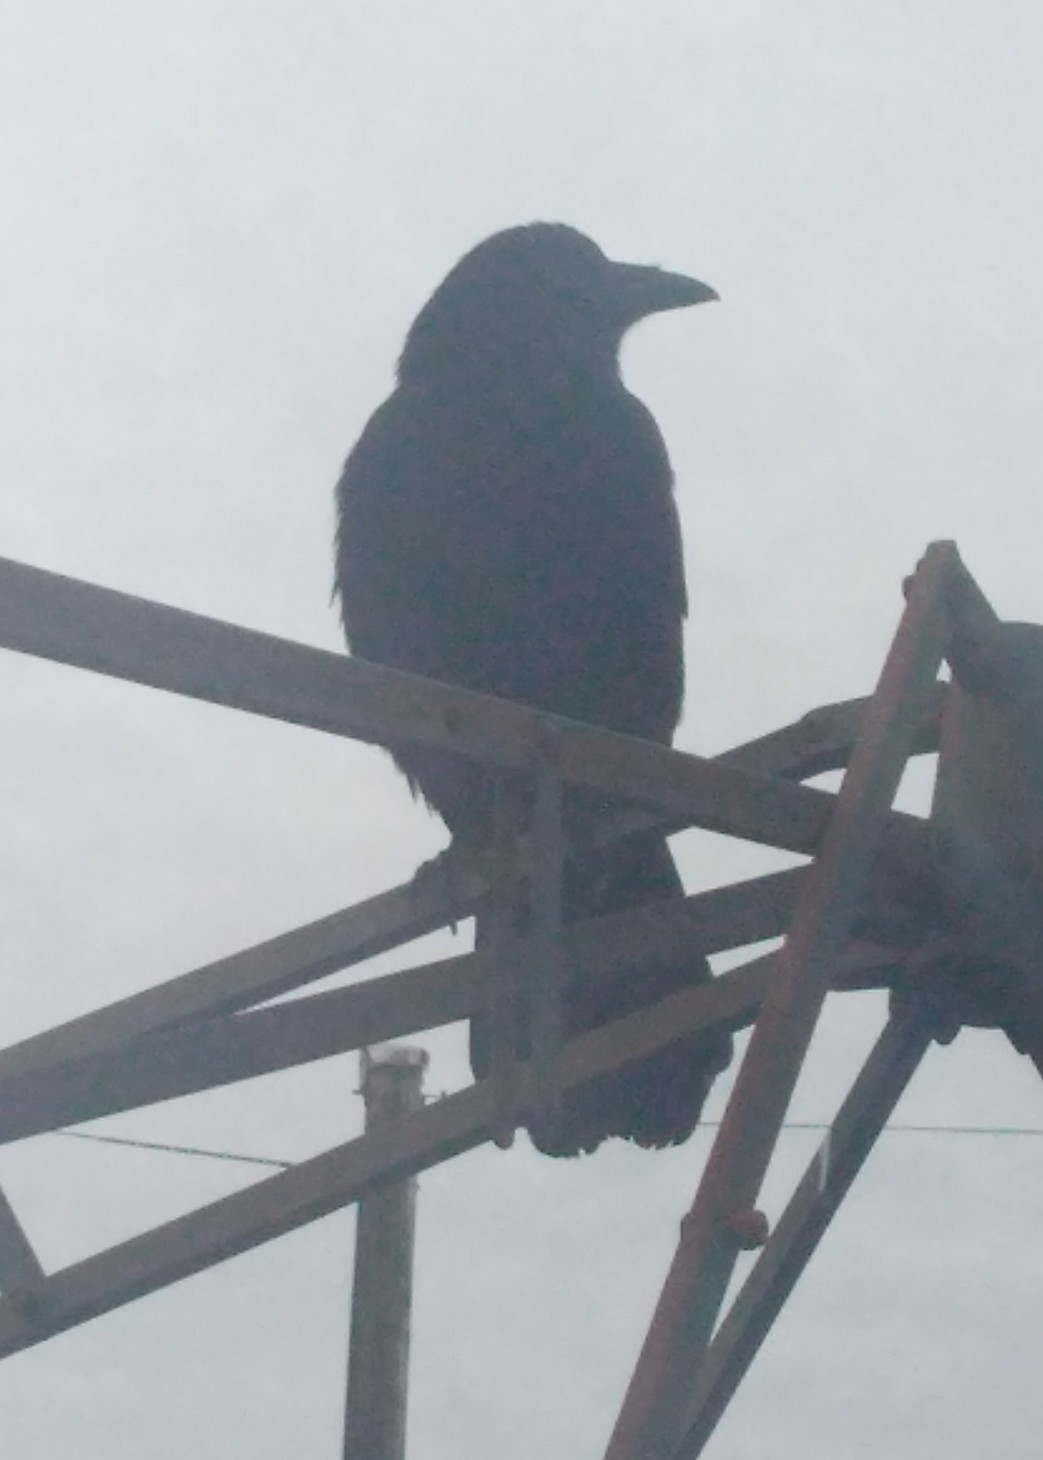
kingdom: Animalia
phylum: Chordata
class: Aves
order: Passeriformes
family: Corvidae
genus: Corvus
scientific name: Corvus brachyrhynchos
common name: American crow
